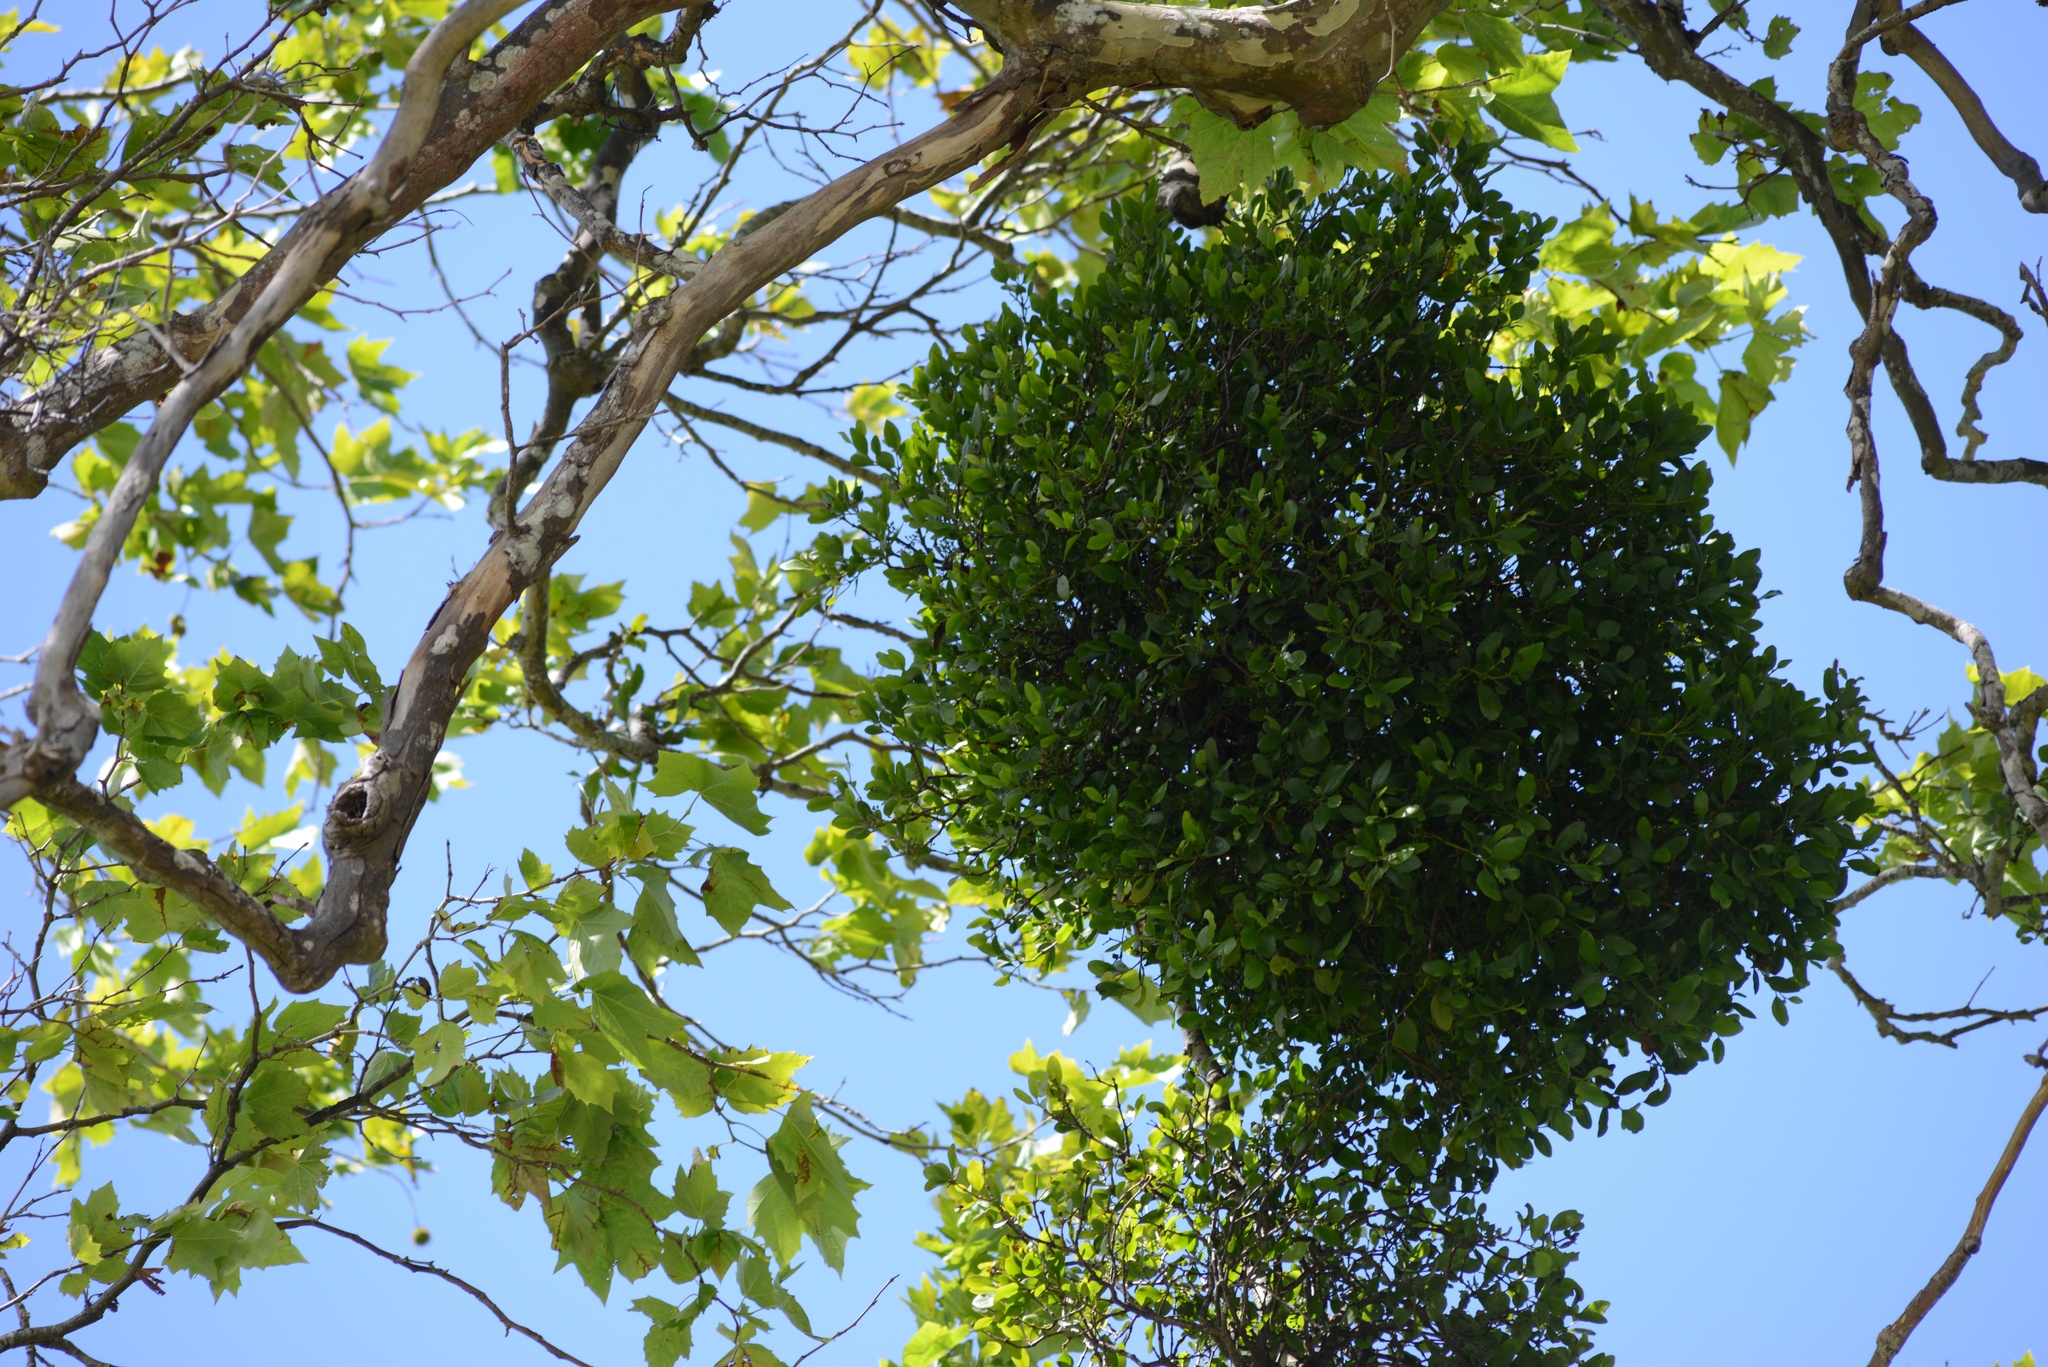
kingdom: Plantae
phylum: Tracheophyta
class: Magnoliopsida
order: Santalales
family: Loranthaceae
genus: Ileostylus
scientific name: Ileostylus micranthus
